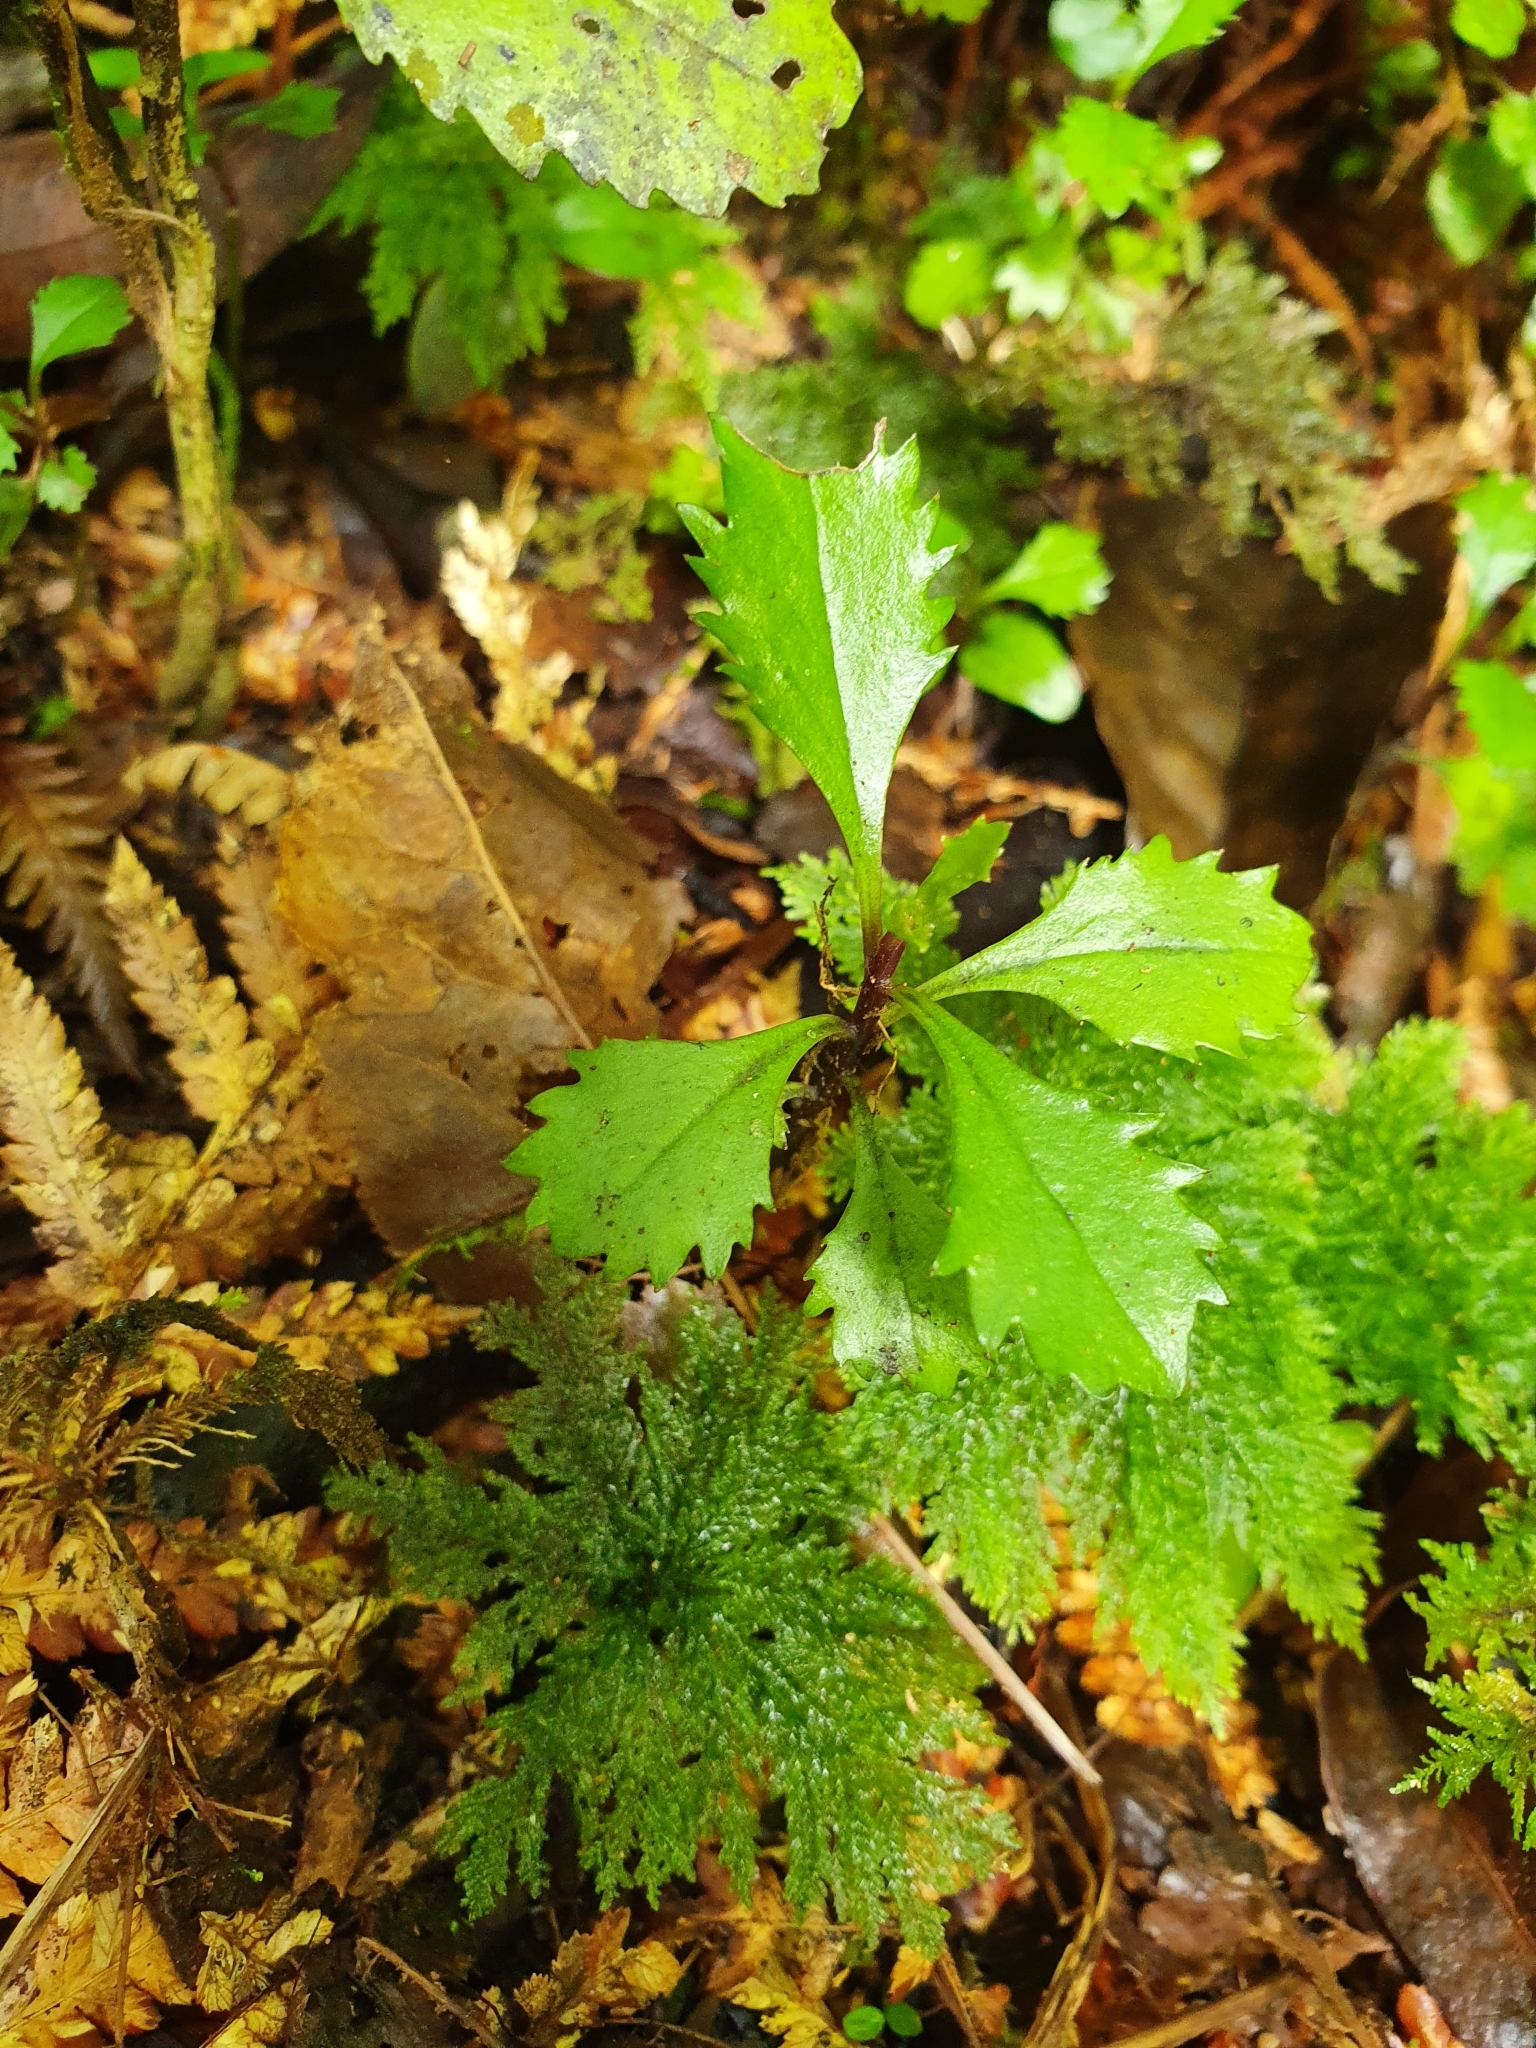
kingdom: Plantae
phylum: Tracheophyta
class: Magnoliopsida
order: Laurales
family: Atherospermataceae
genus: Laurelia
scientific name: Laurelia novae-zelandiae
